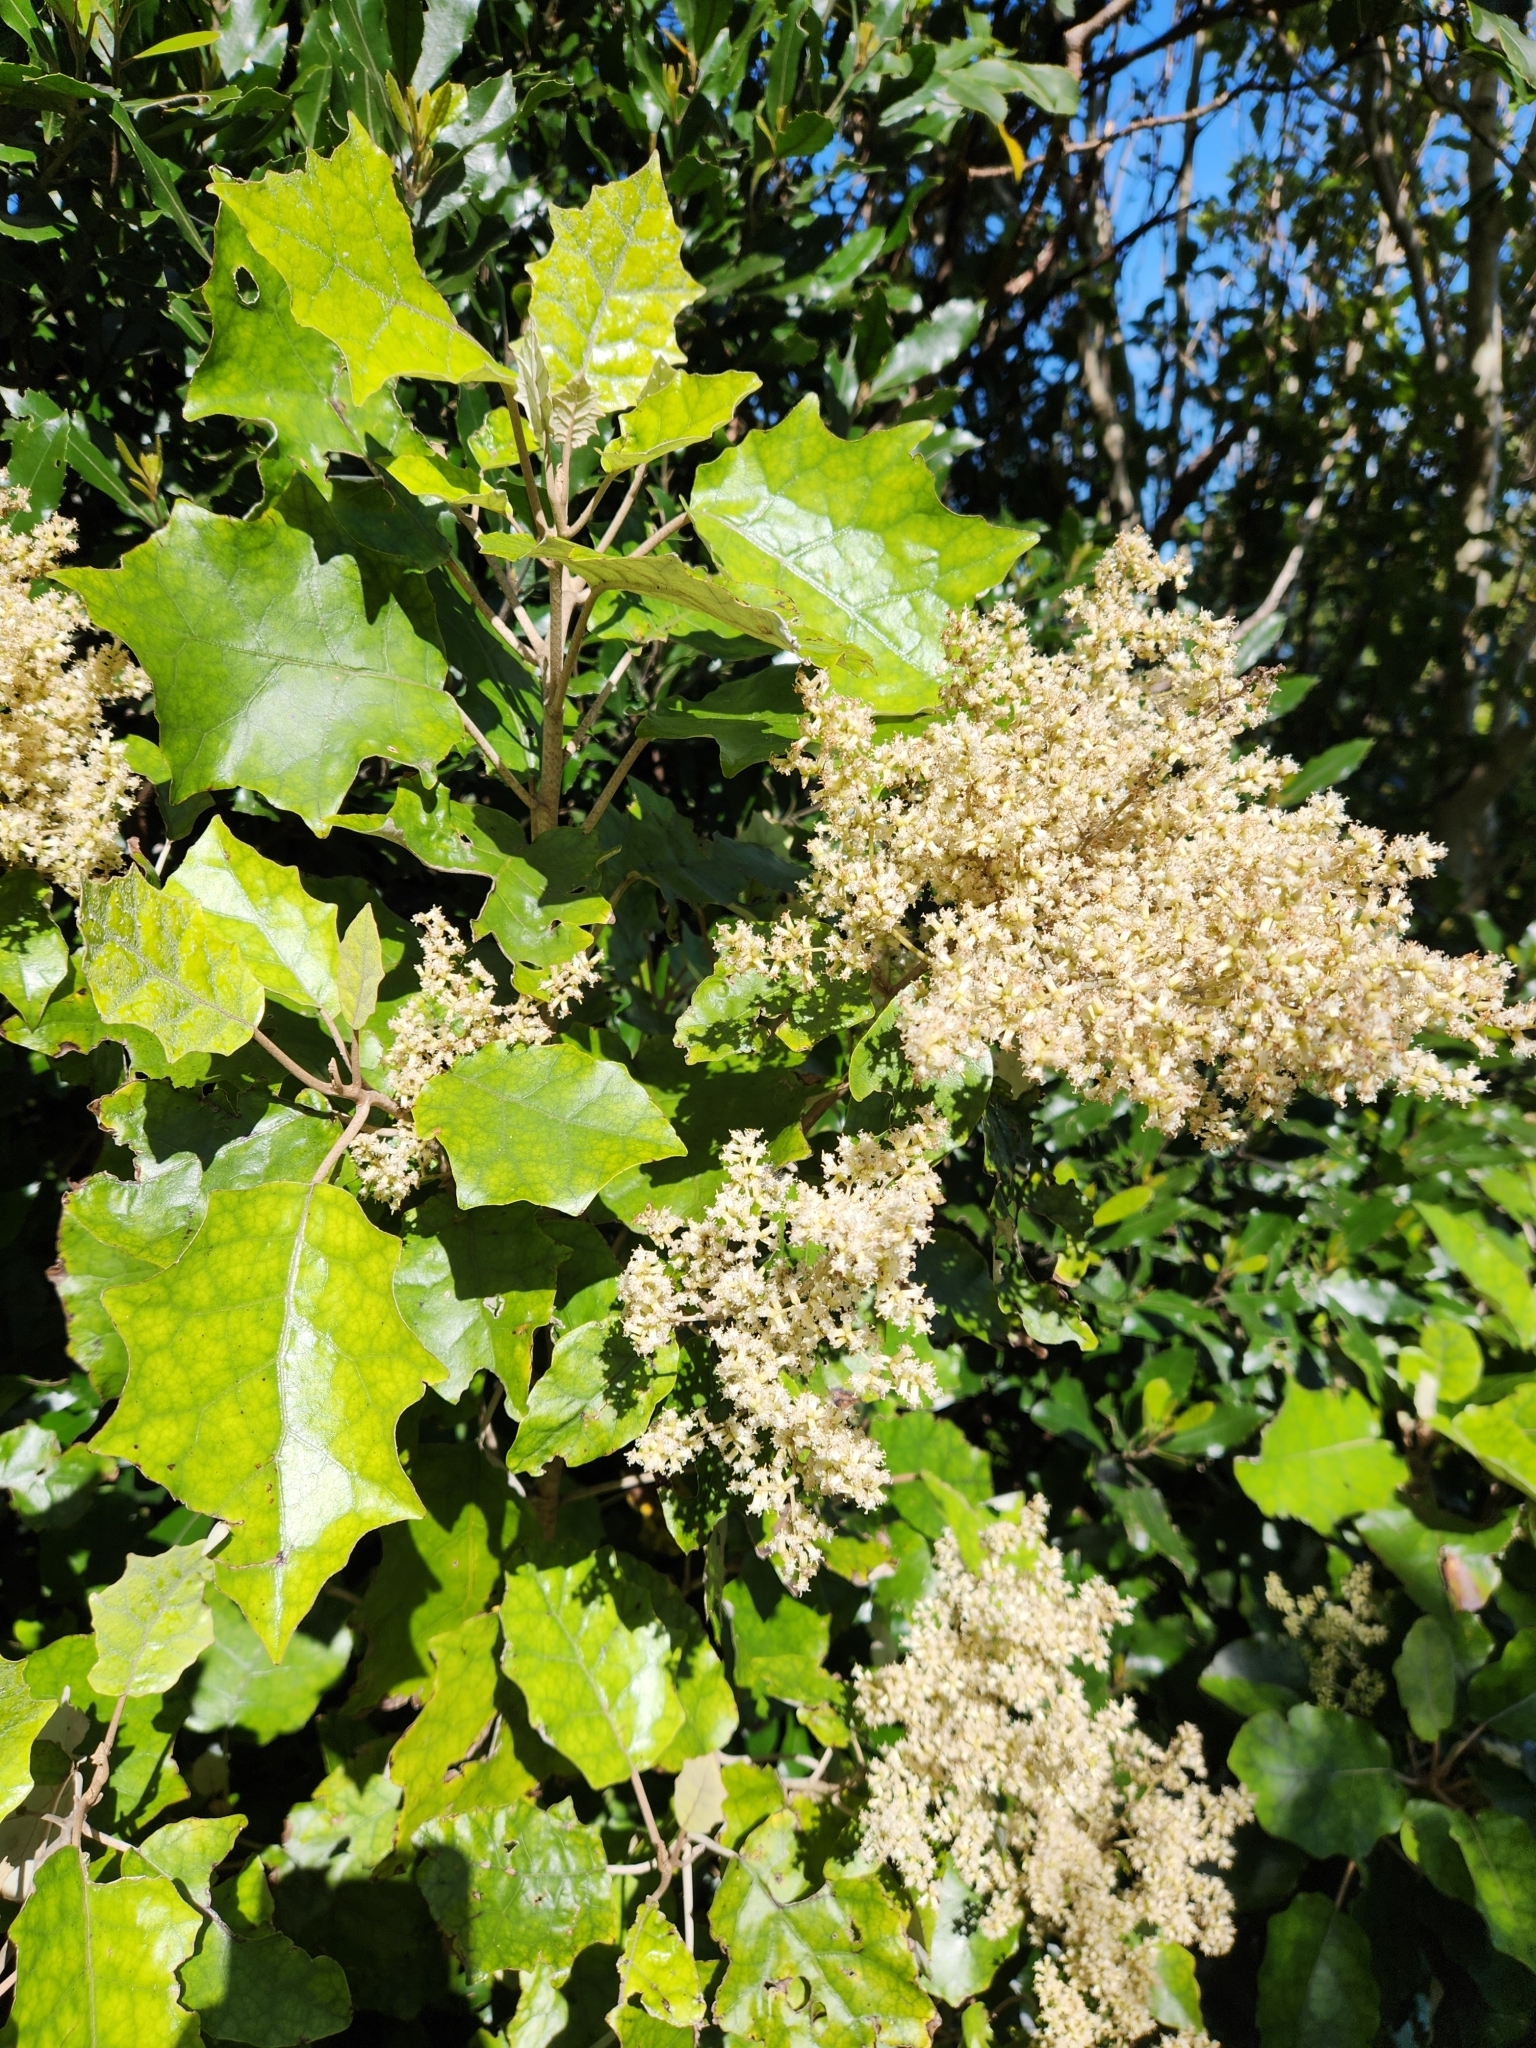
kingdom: Plantae
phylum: Tracheophyta
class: Magnoliopsida
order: Asterales
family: Asteraceae
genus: Brachyglottis
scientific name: Brachyglottis repanda
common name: Hedge ragwort
